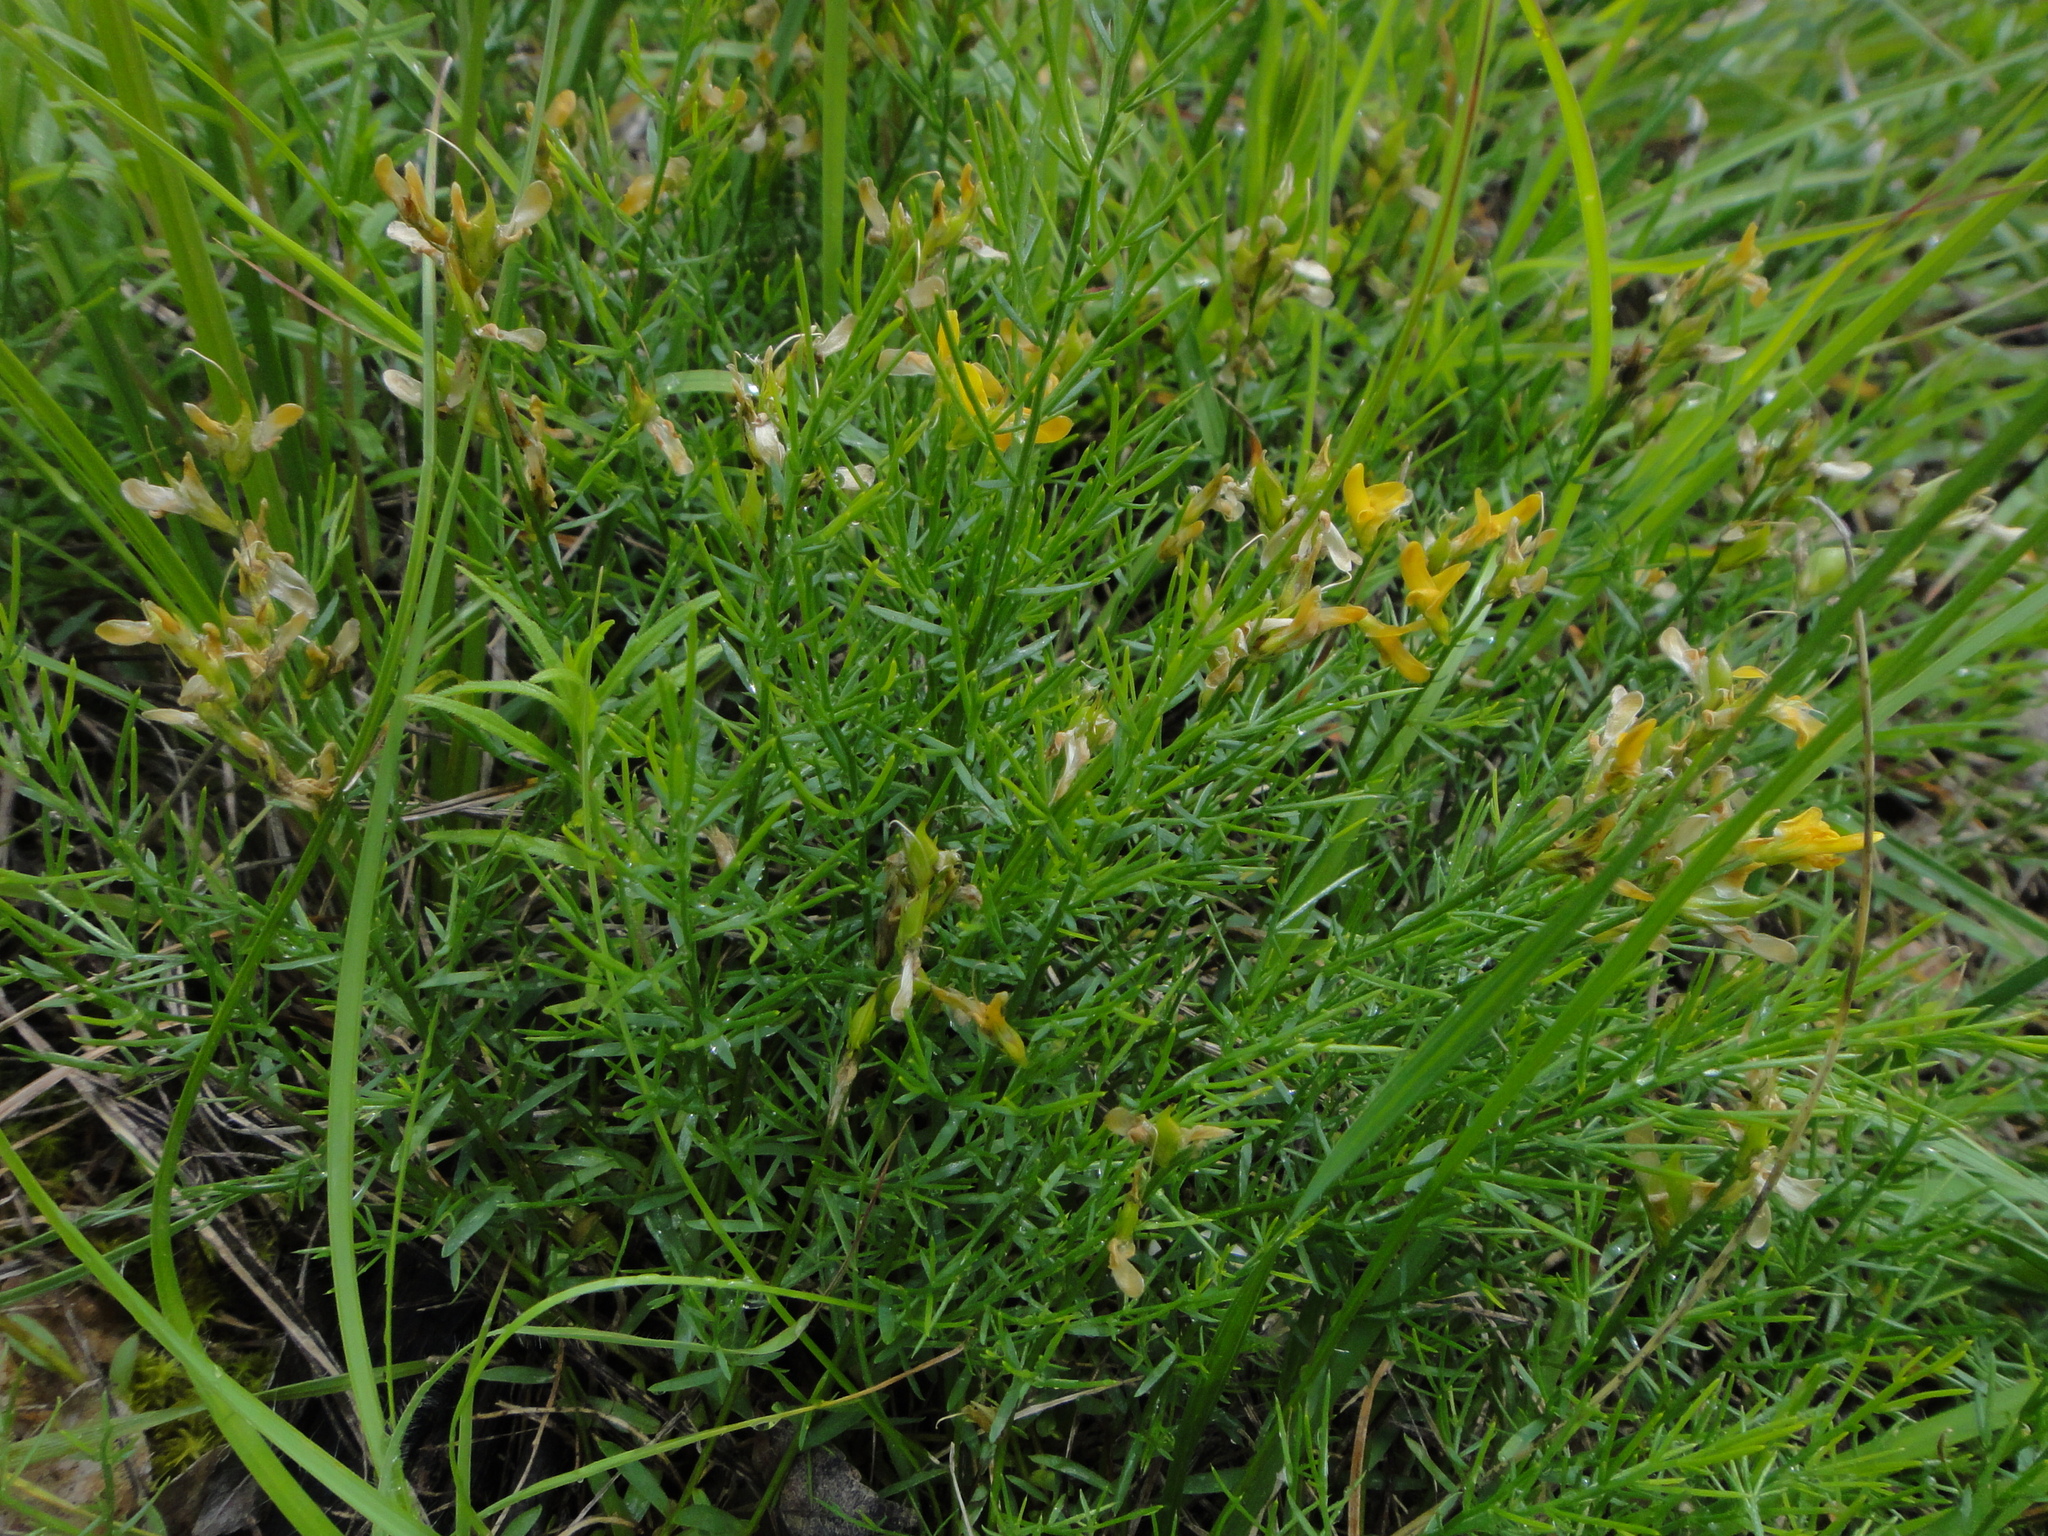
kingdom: Plantae
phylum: Tracheophyta
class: Magnoliopsida
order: Fabales
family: Fabaceae
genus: Genista
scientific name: Genista sylvestris
